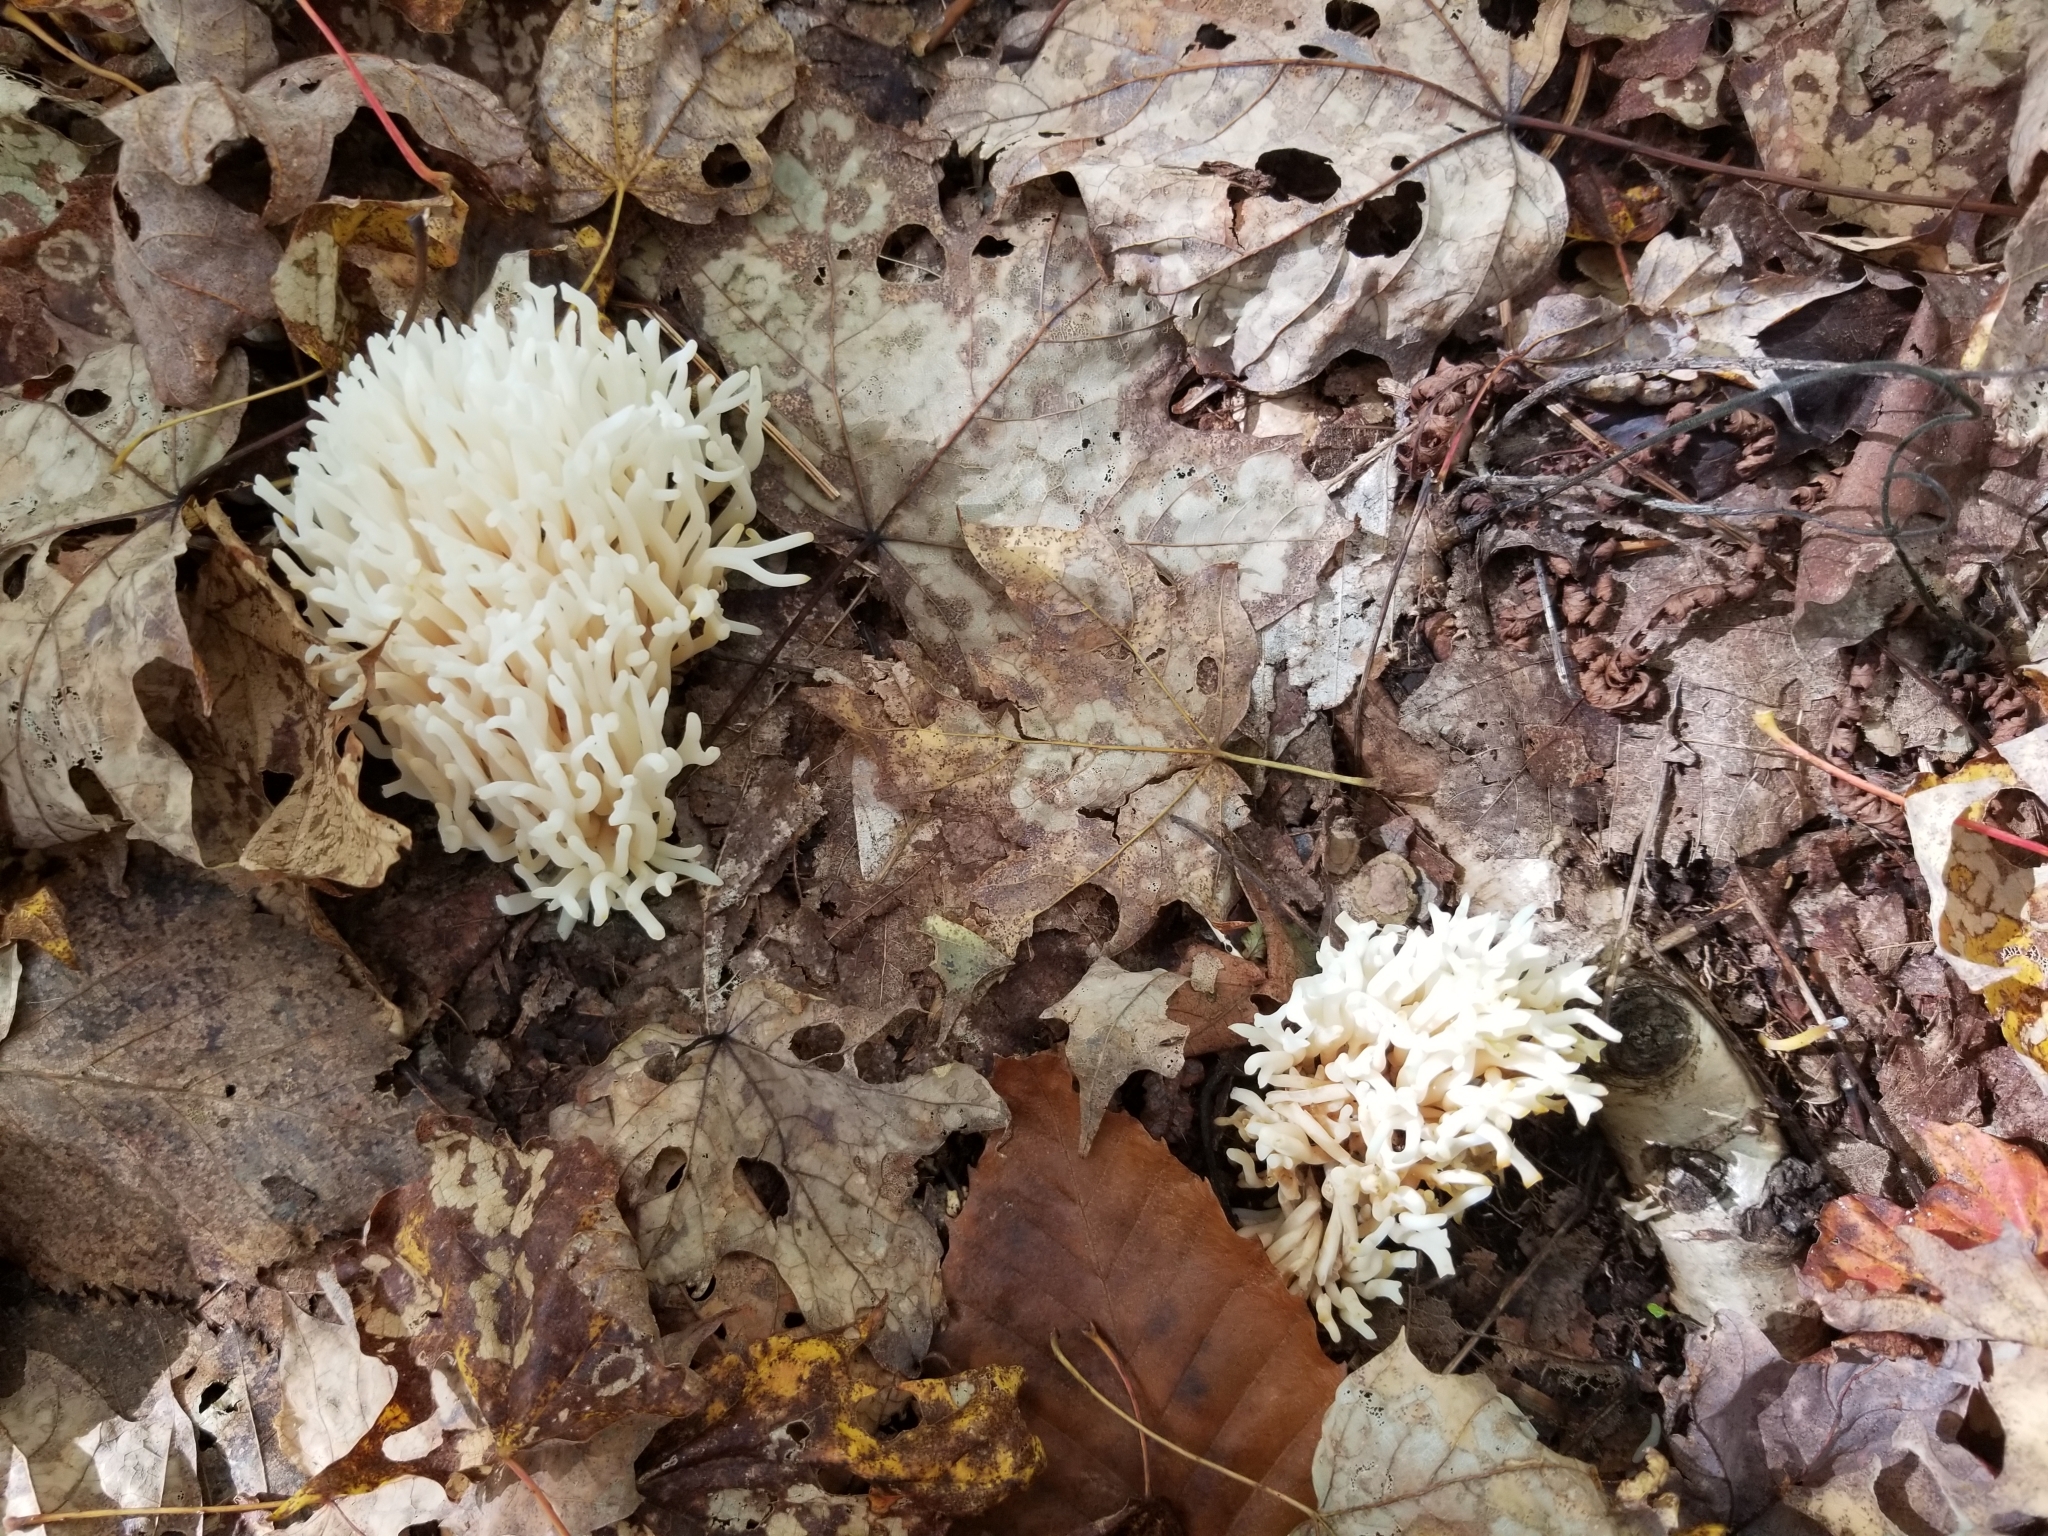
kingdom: Fungi
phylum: Basidiomycota
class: Agaricomycetes
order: Agaricales
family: Clavariaceae
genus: Ramariopsis
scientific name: Ramariopsis kunzei
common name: Ivory coral
